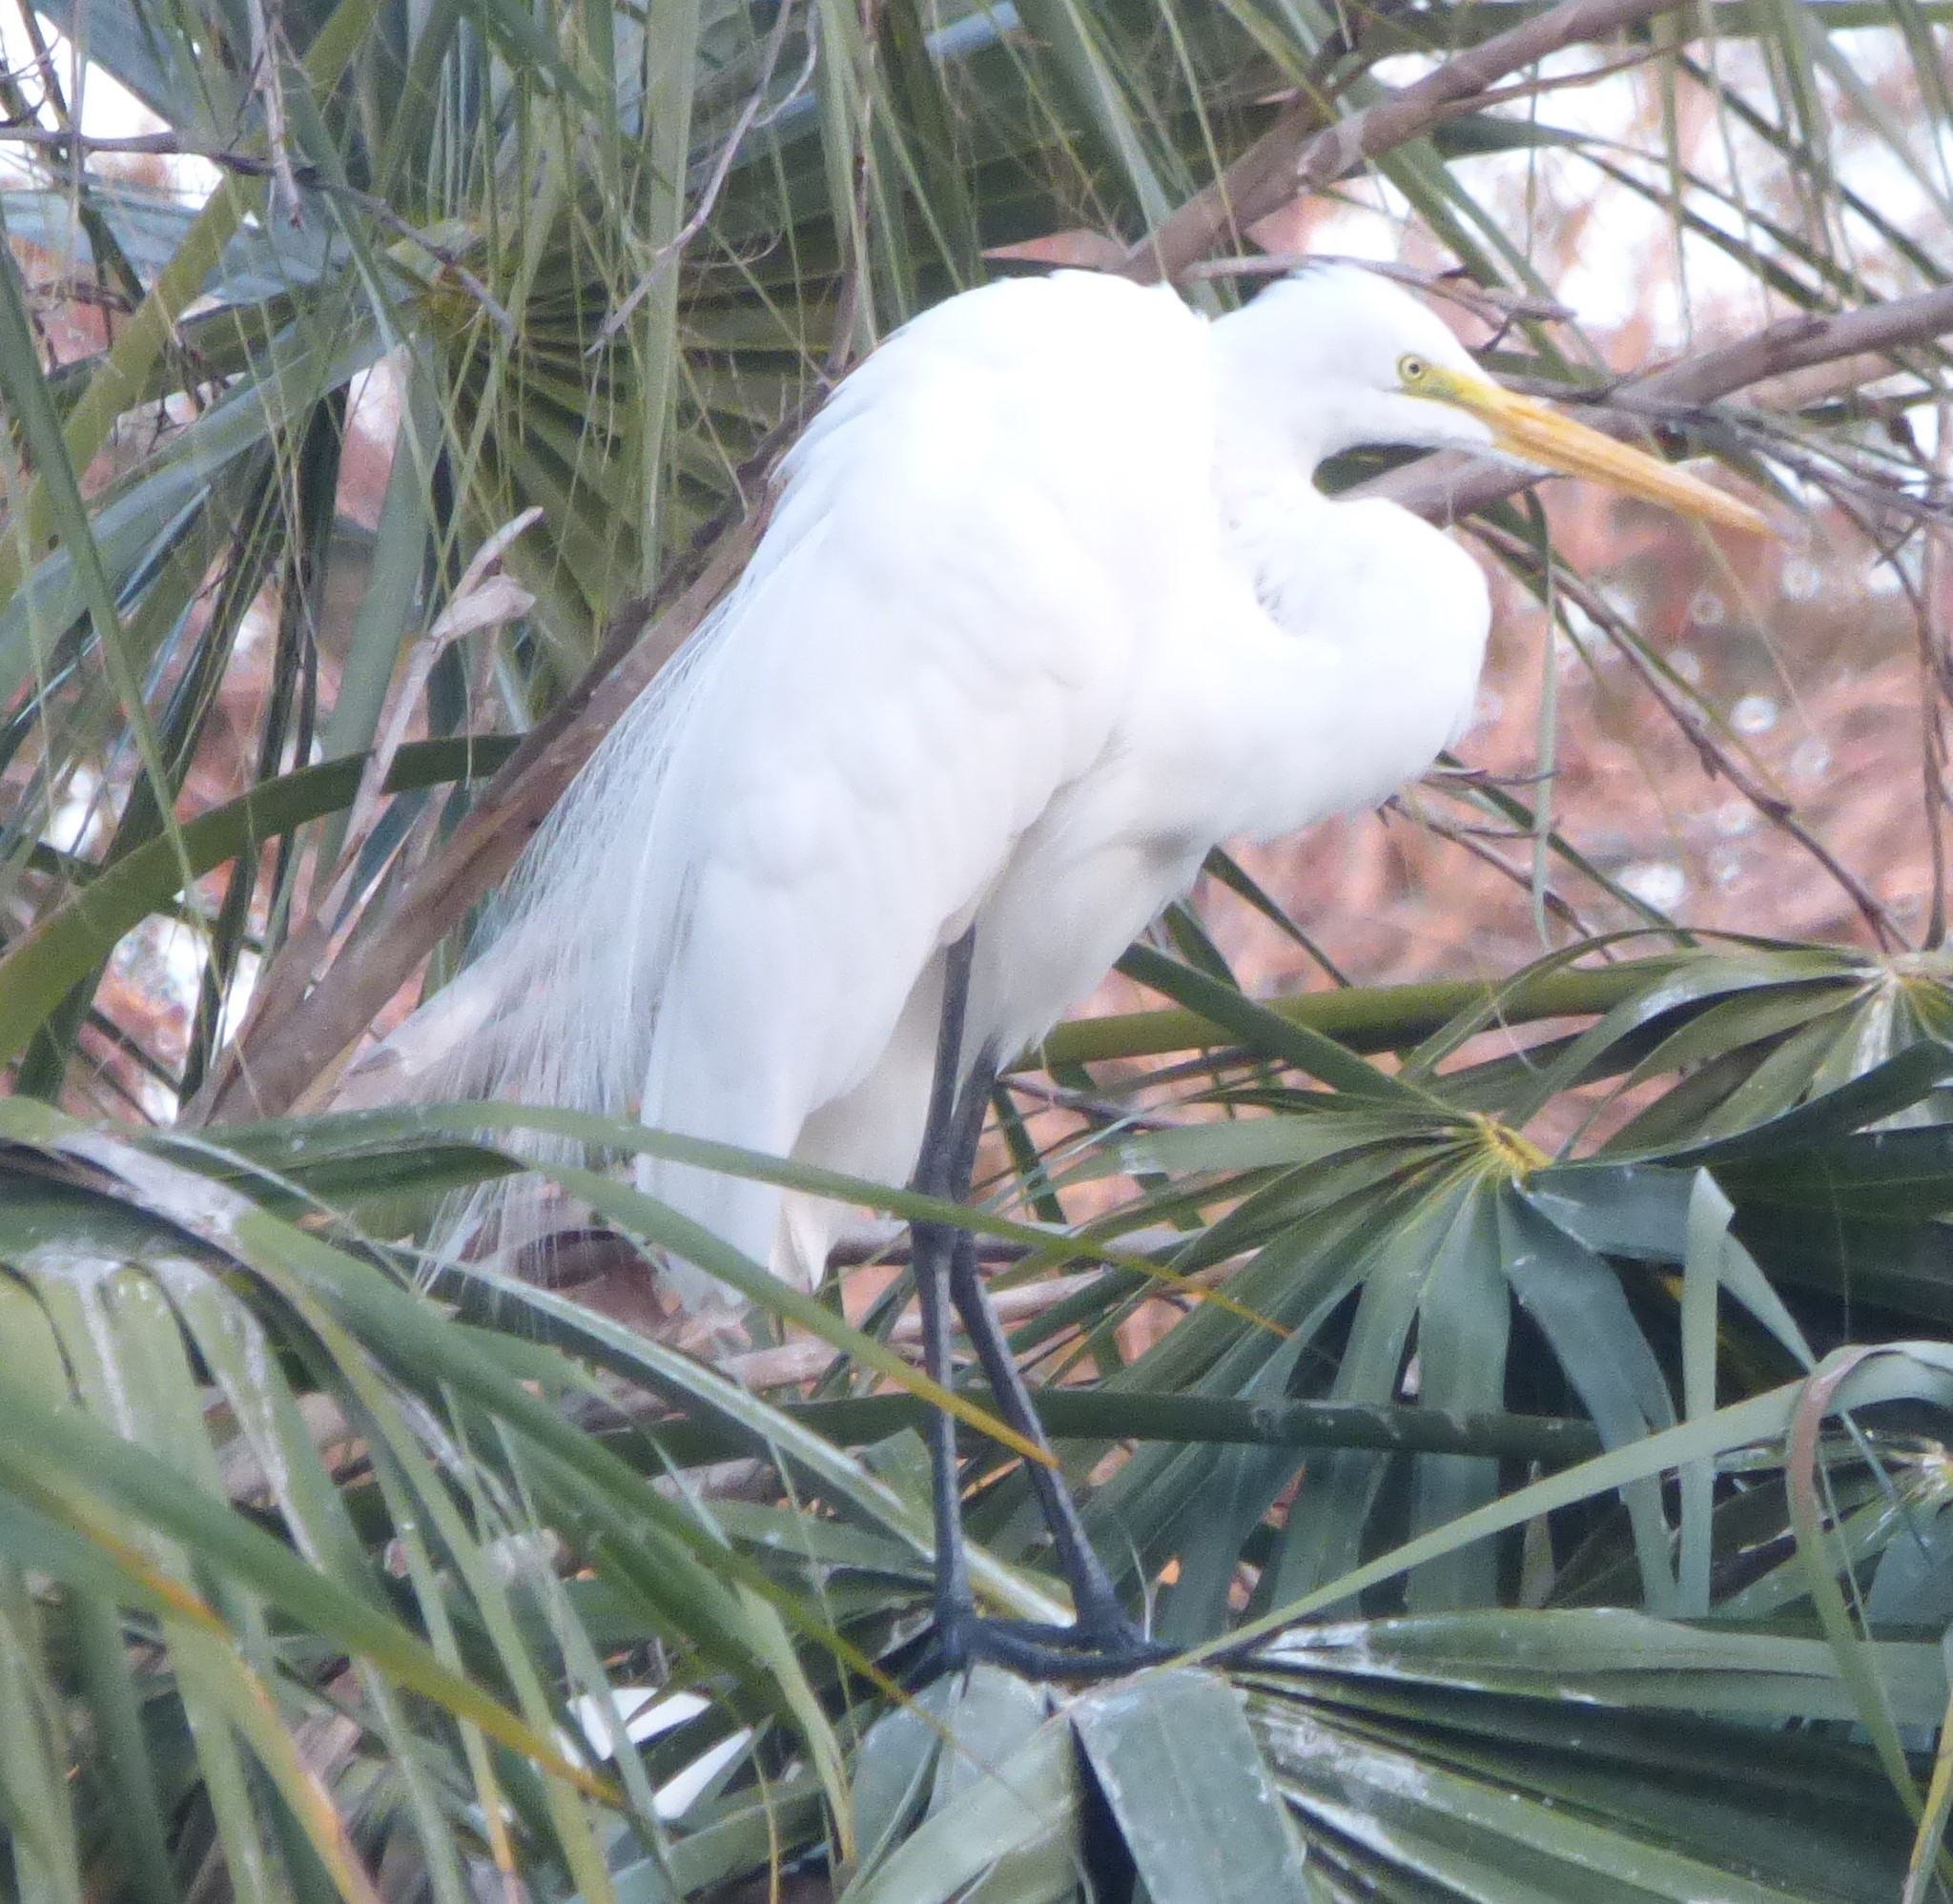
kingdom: Animalia
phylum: Chordata
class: Aves
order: Pelecaniformes
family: Ardeidae
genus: Ardea
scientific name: Ardea alba
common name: Great egret
